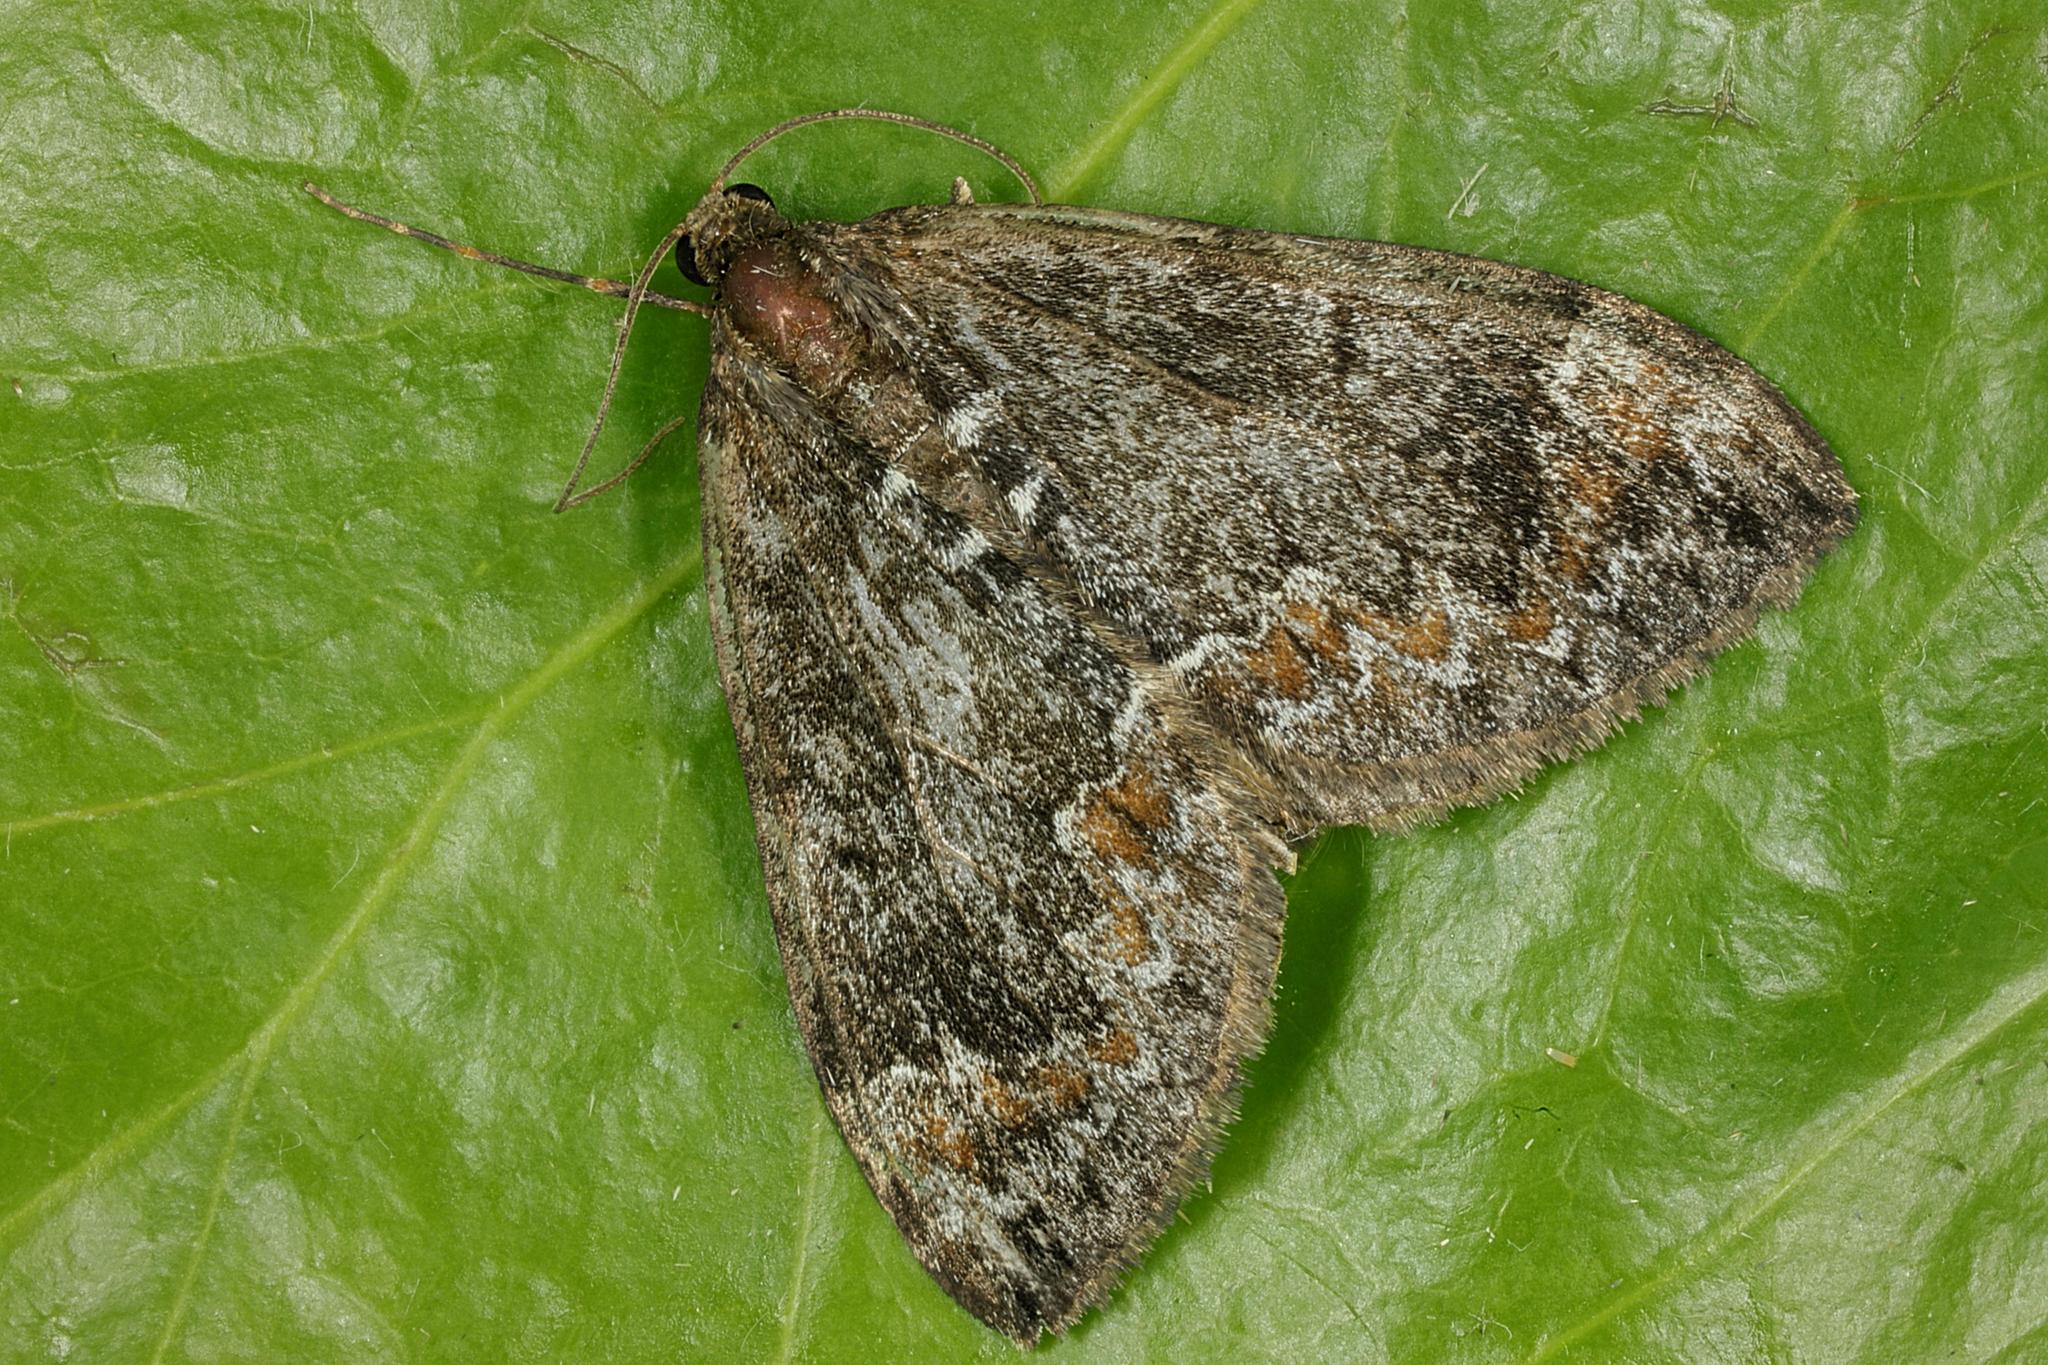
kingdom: Animalia
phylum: Arthropoda
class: Insecta
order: Lepidoptera
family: Geometridae
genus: Dysstroma
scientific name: Dysstroma truncata
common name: Common marbled carpet
